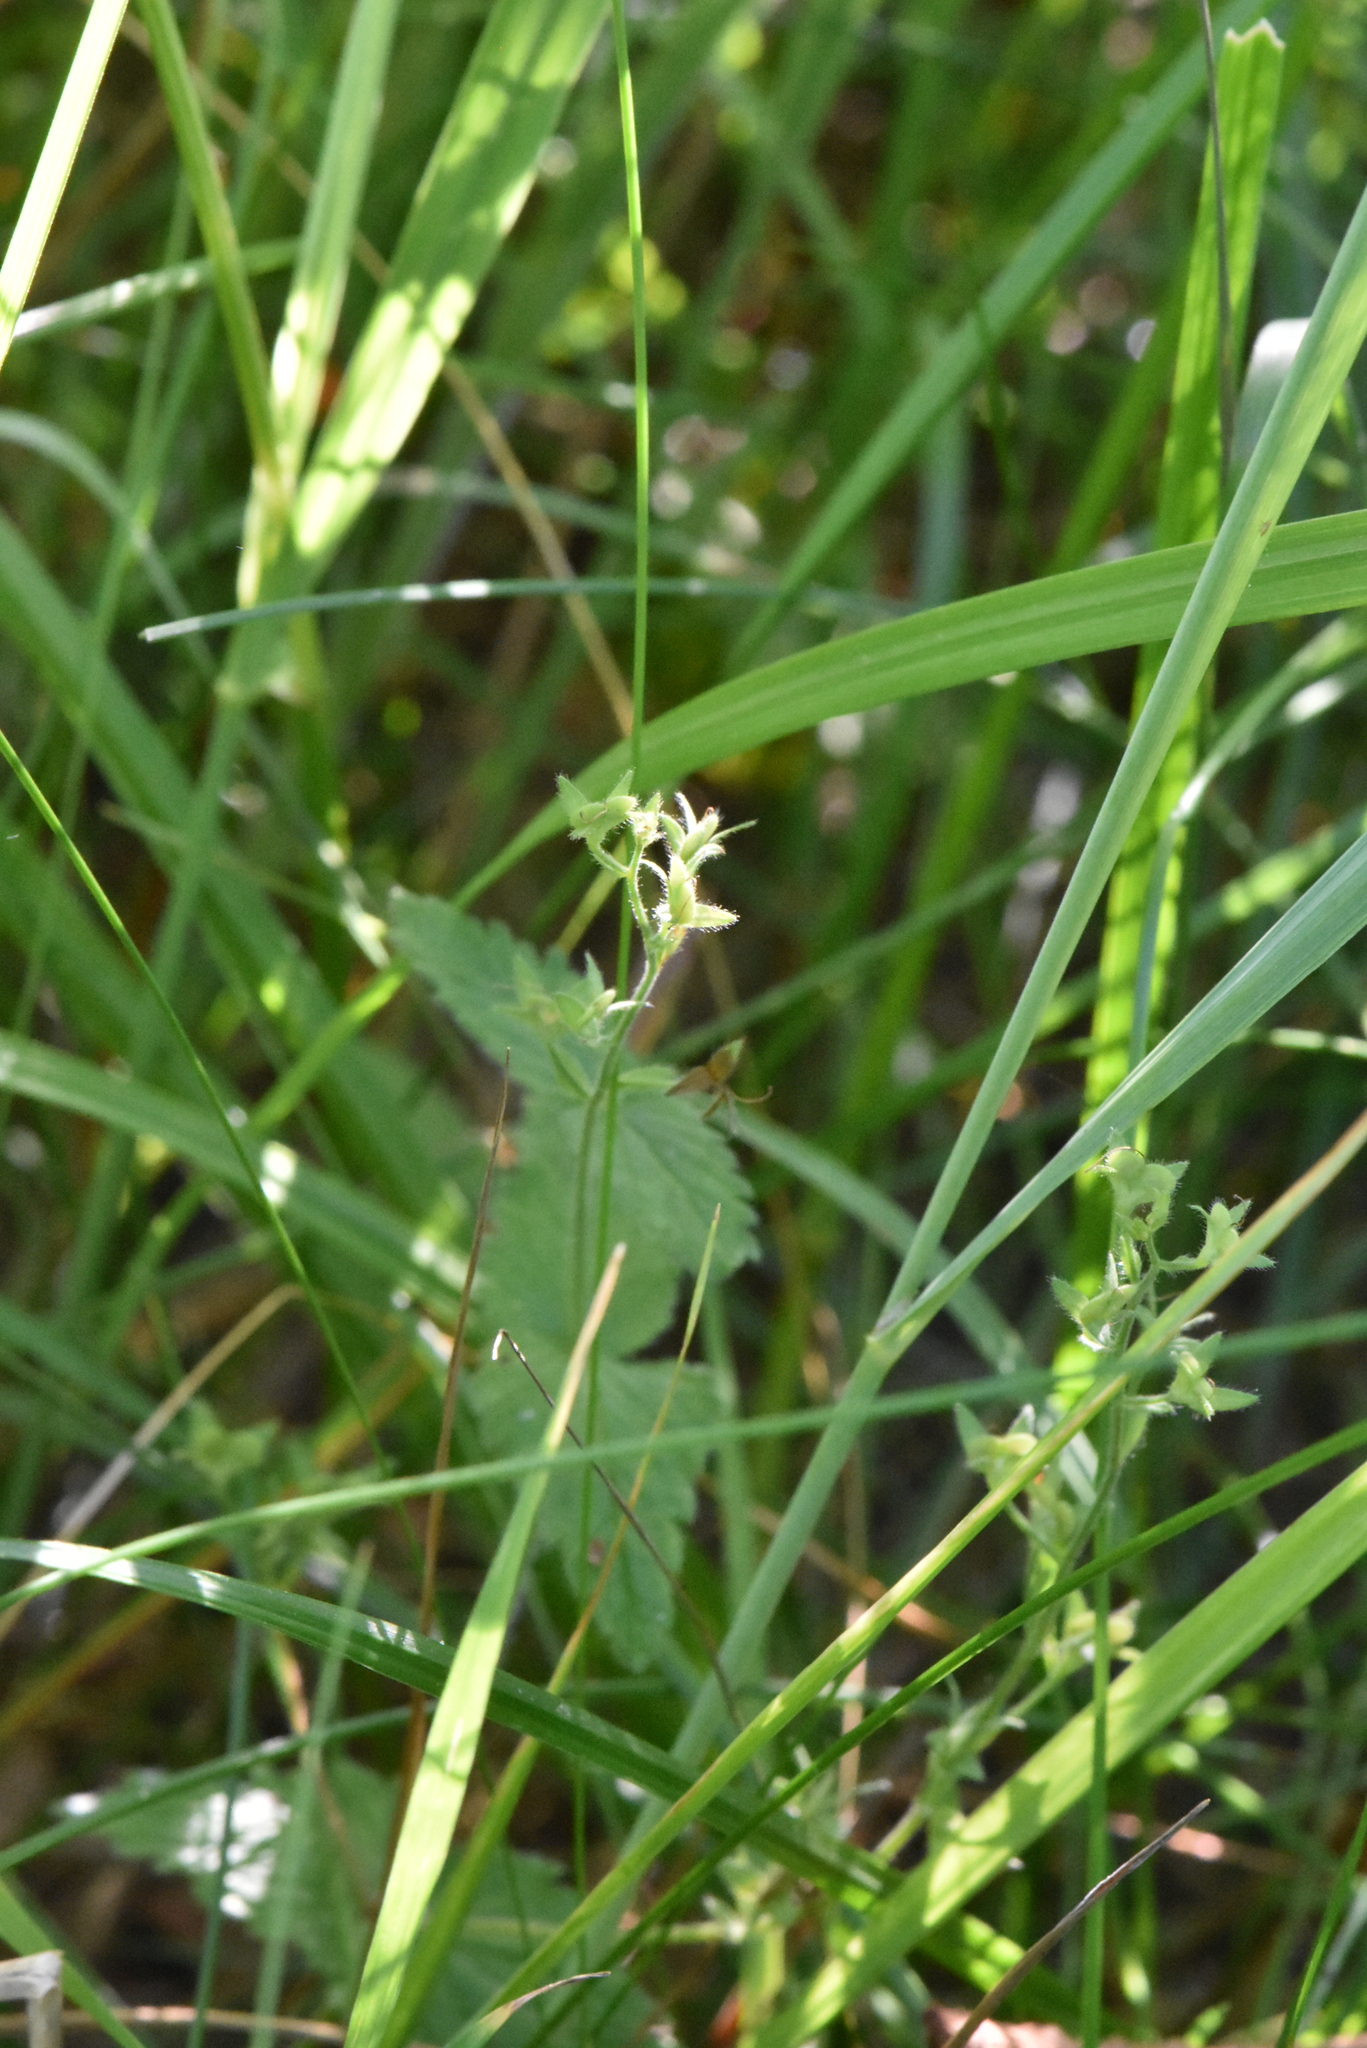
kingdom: Plantae
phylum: Tracheophyta
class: Magnoliopsida
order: Lamiales
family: Plantaginaceae
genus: Veronica
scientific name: Veronica chamaedrys
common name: Germander speedwell
